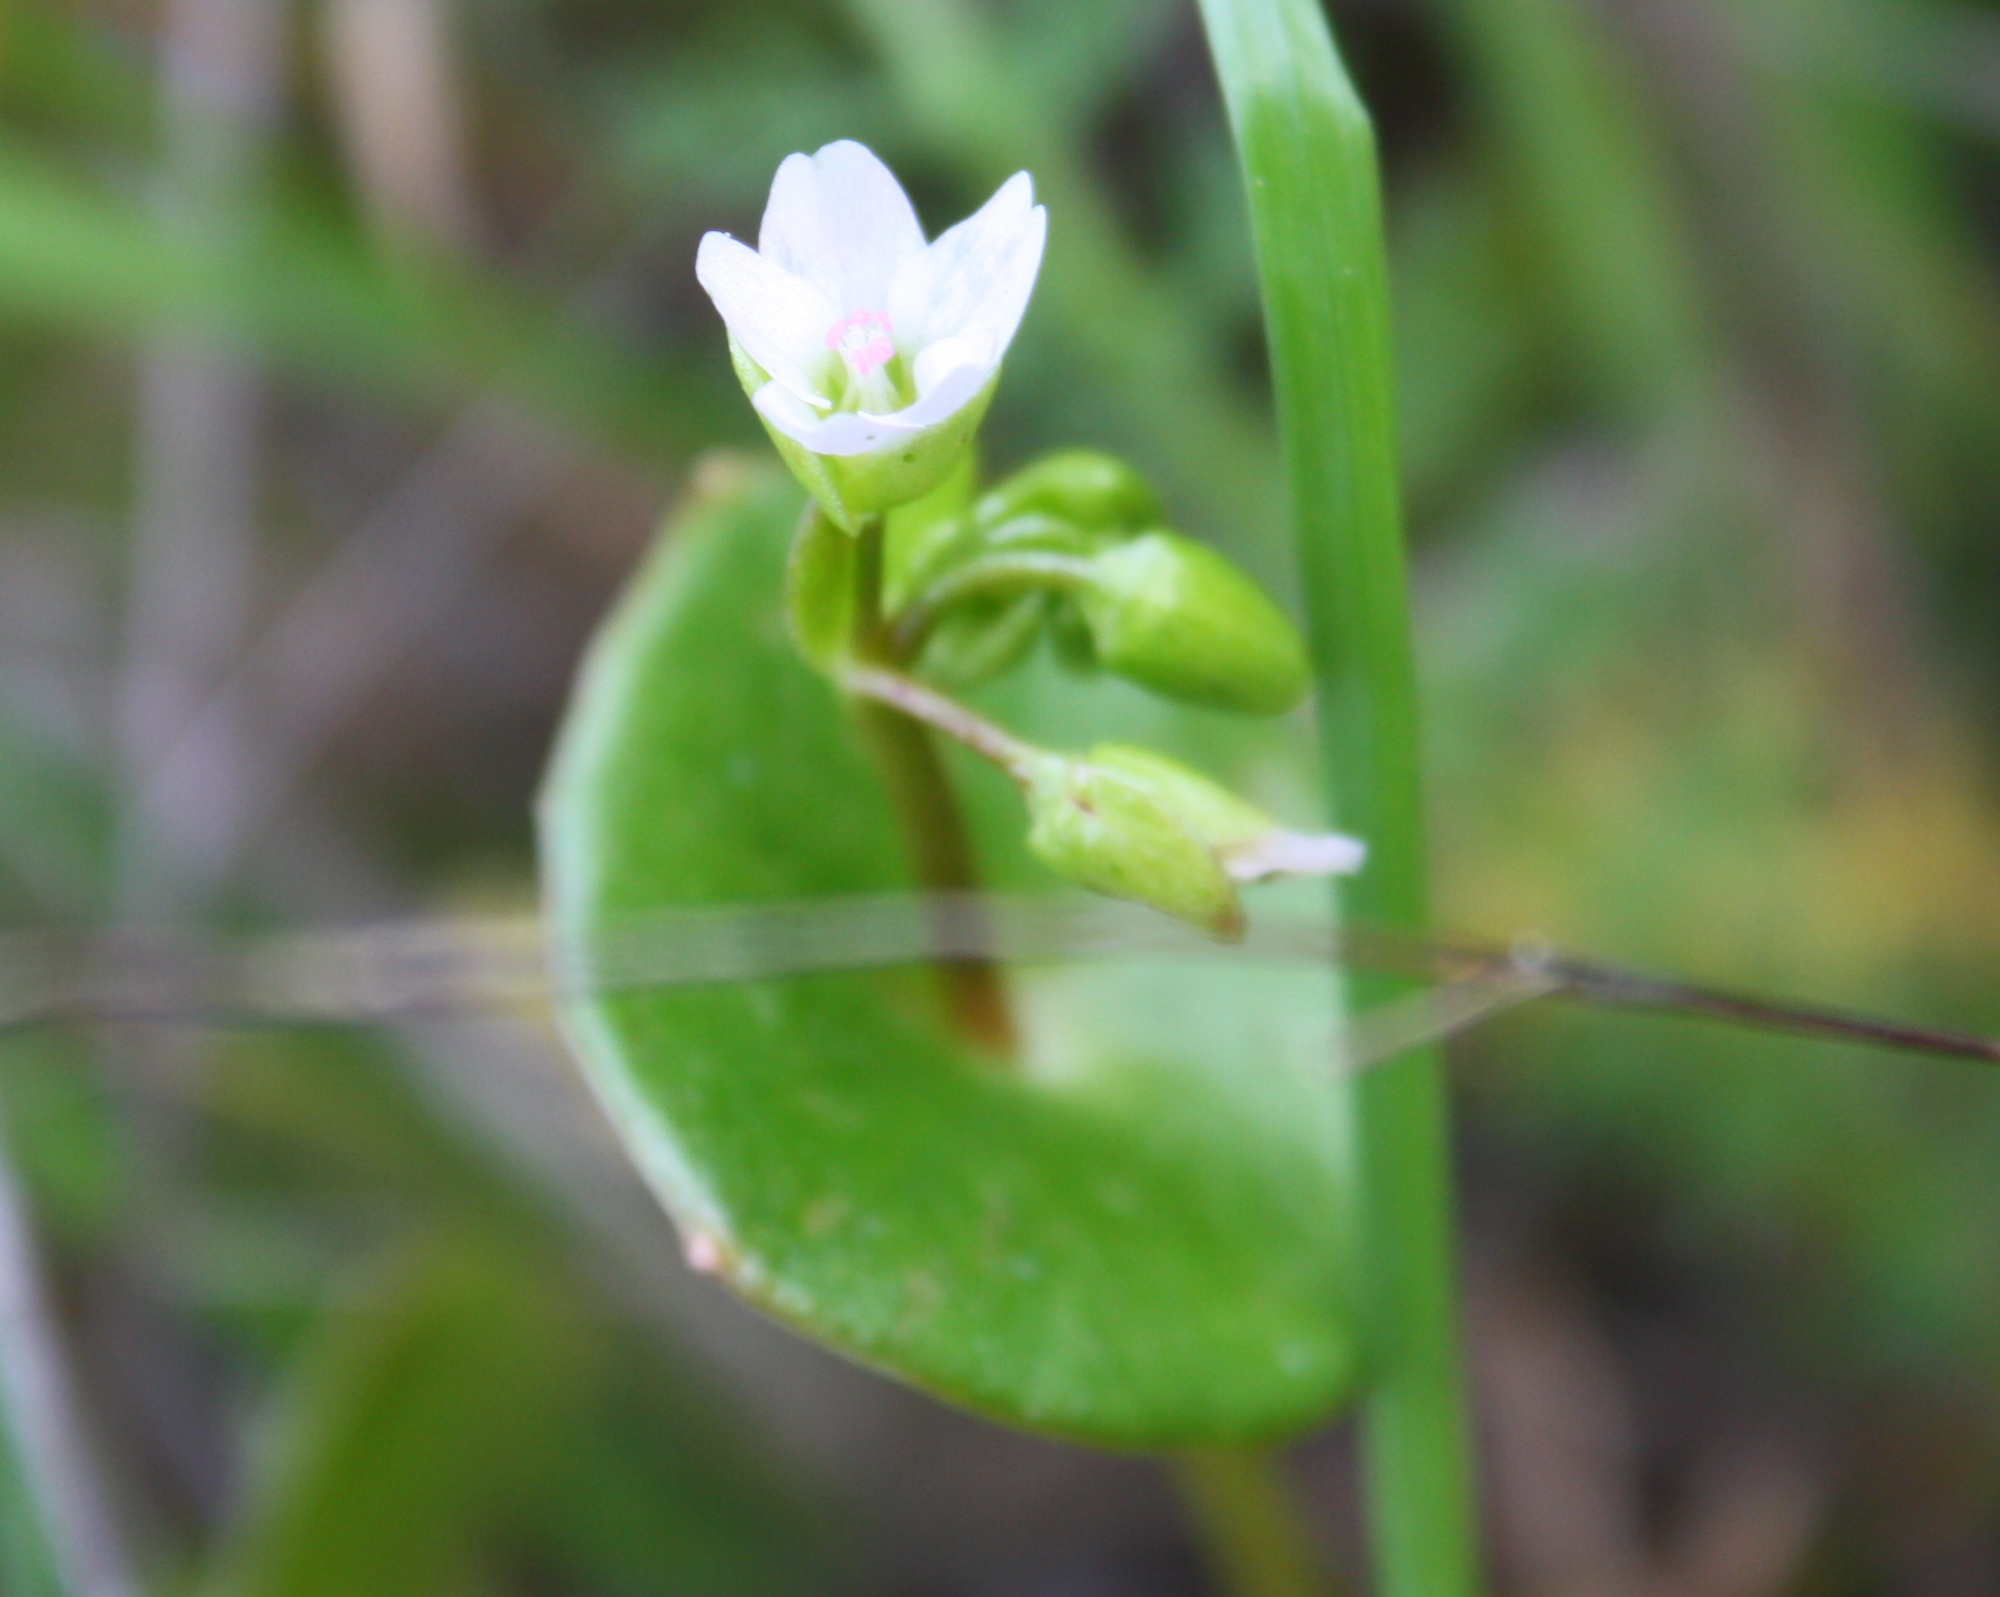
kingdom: Plantae
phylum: Tracheophyta
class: Magnoliopsida
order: Caryophyllales
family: Montiaceae
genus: Claytonia
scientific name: Claytonia perfoliata
